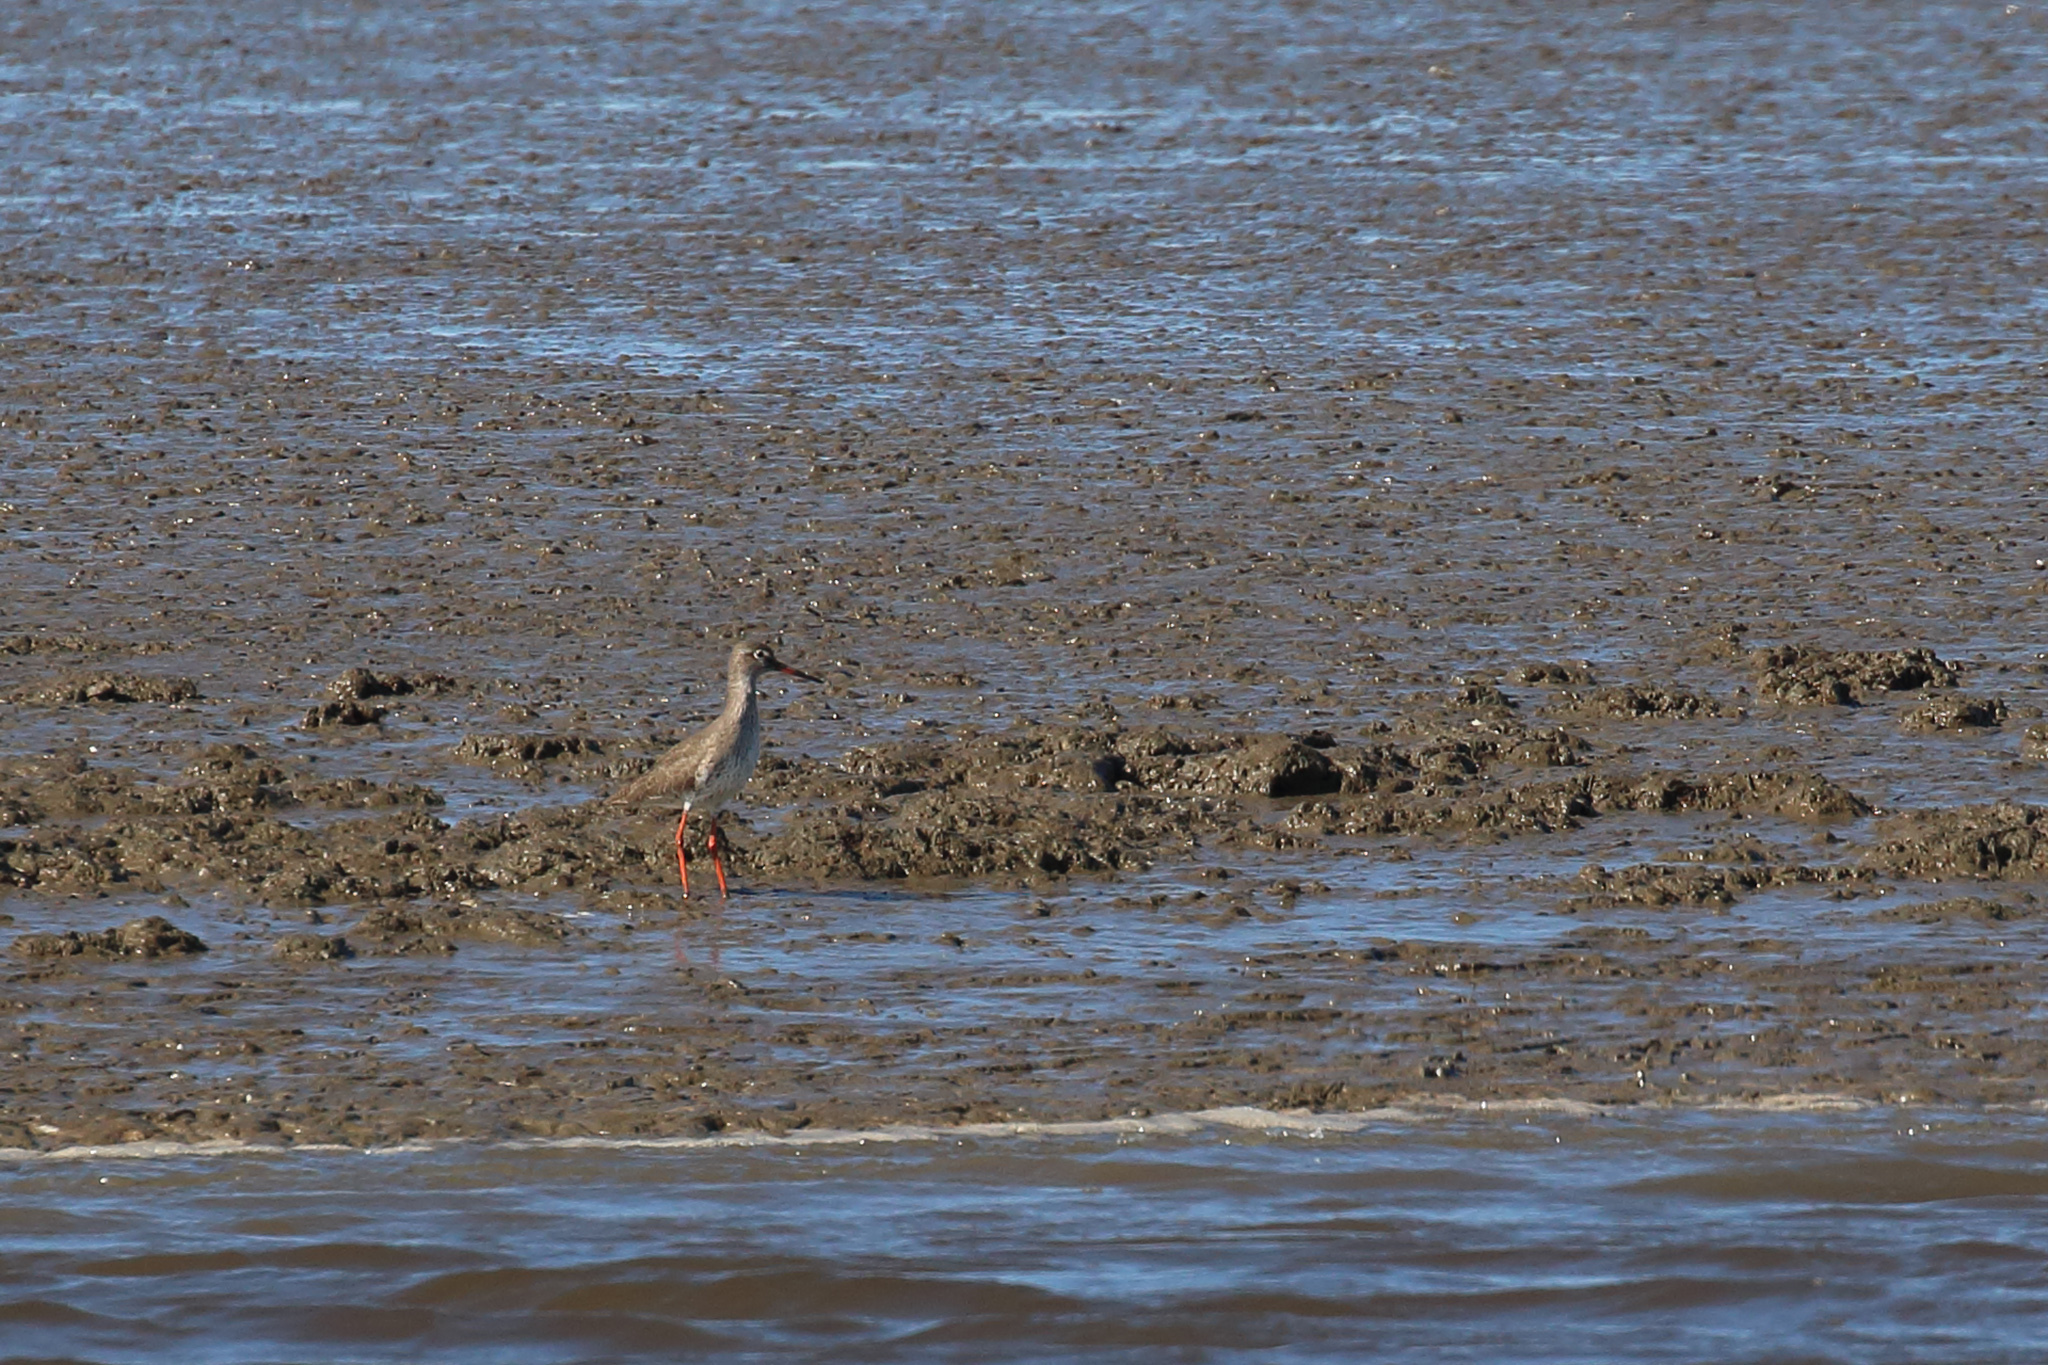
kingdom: Animalia
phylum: Chordata
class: Aves
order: Charadriiformes
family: Scolopacidae
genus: Tringa
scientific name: Tringa totanus
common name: Common redshank
